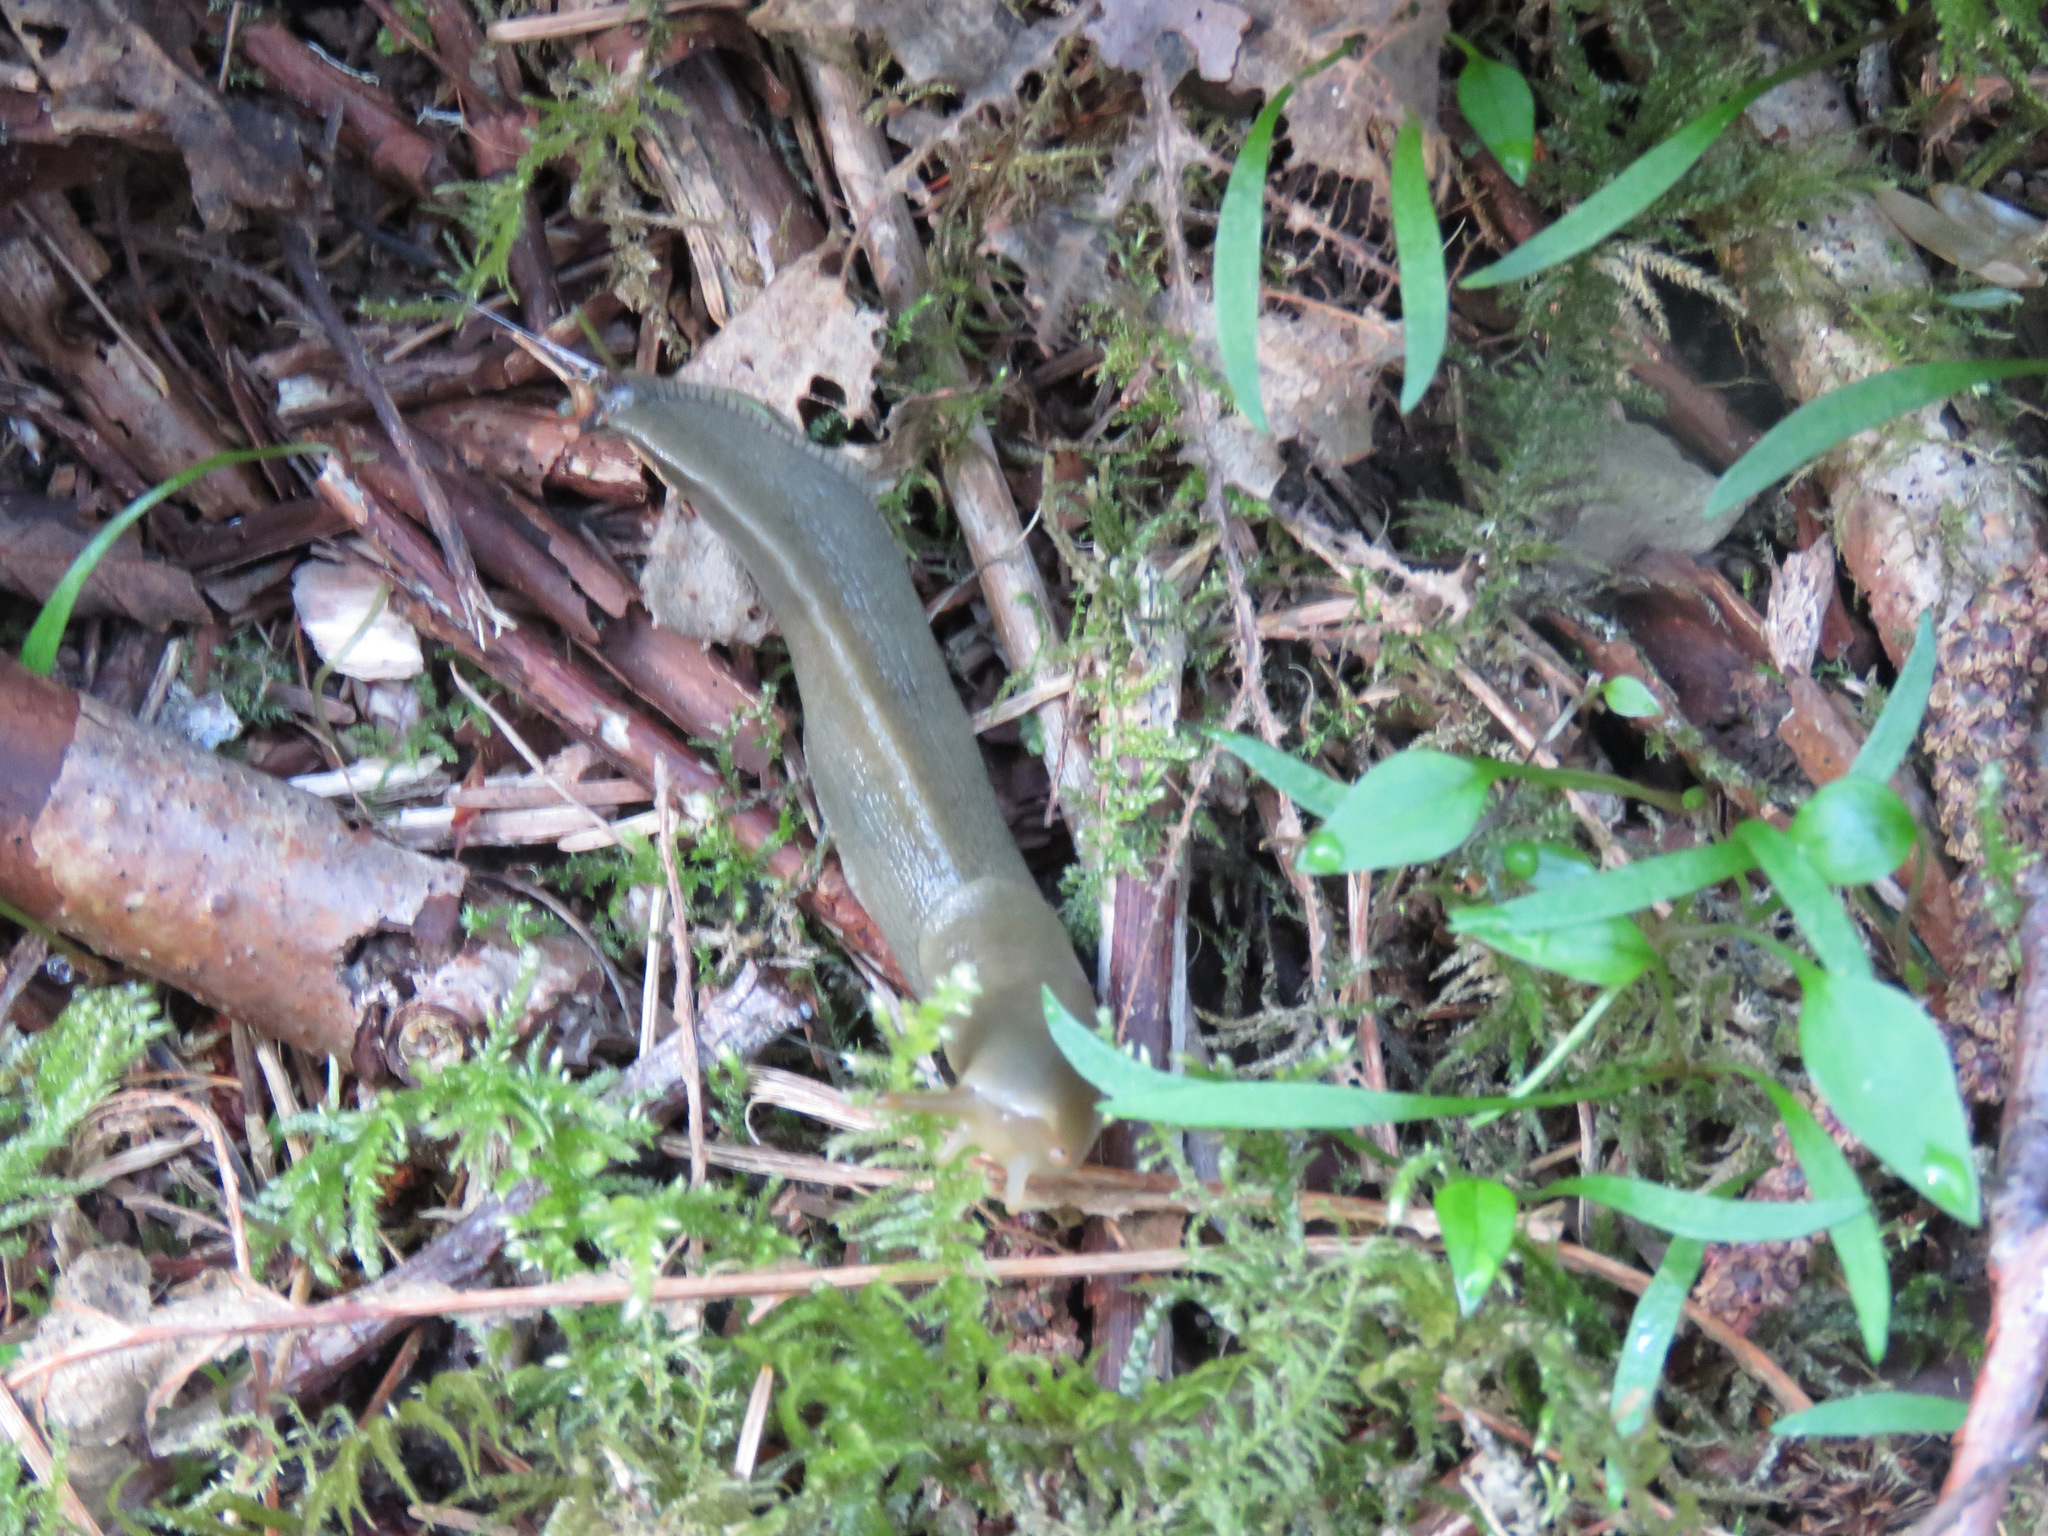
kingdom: Animalia
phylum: Mollusca
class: Gastropoda
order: Stylommatophora
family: Ariolimacidae
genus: Ariolimax
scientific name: Ariolimax columbianus
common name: Pacific banana slug
